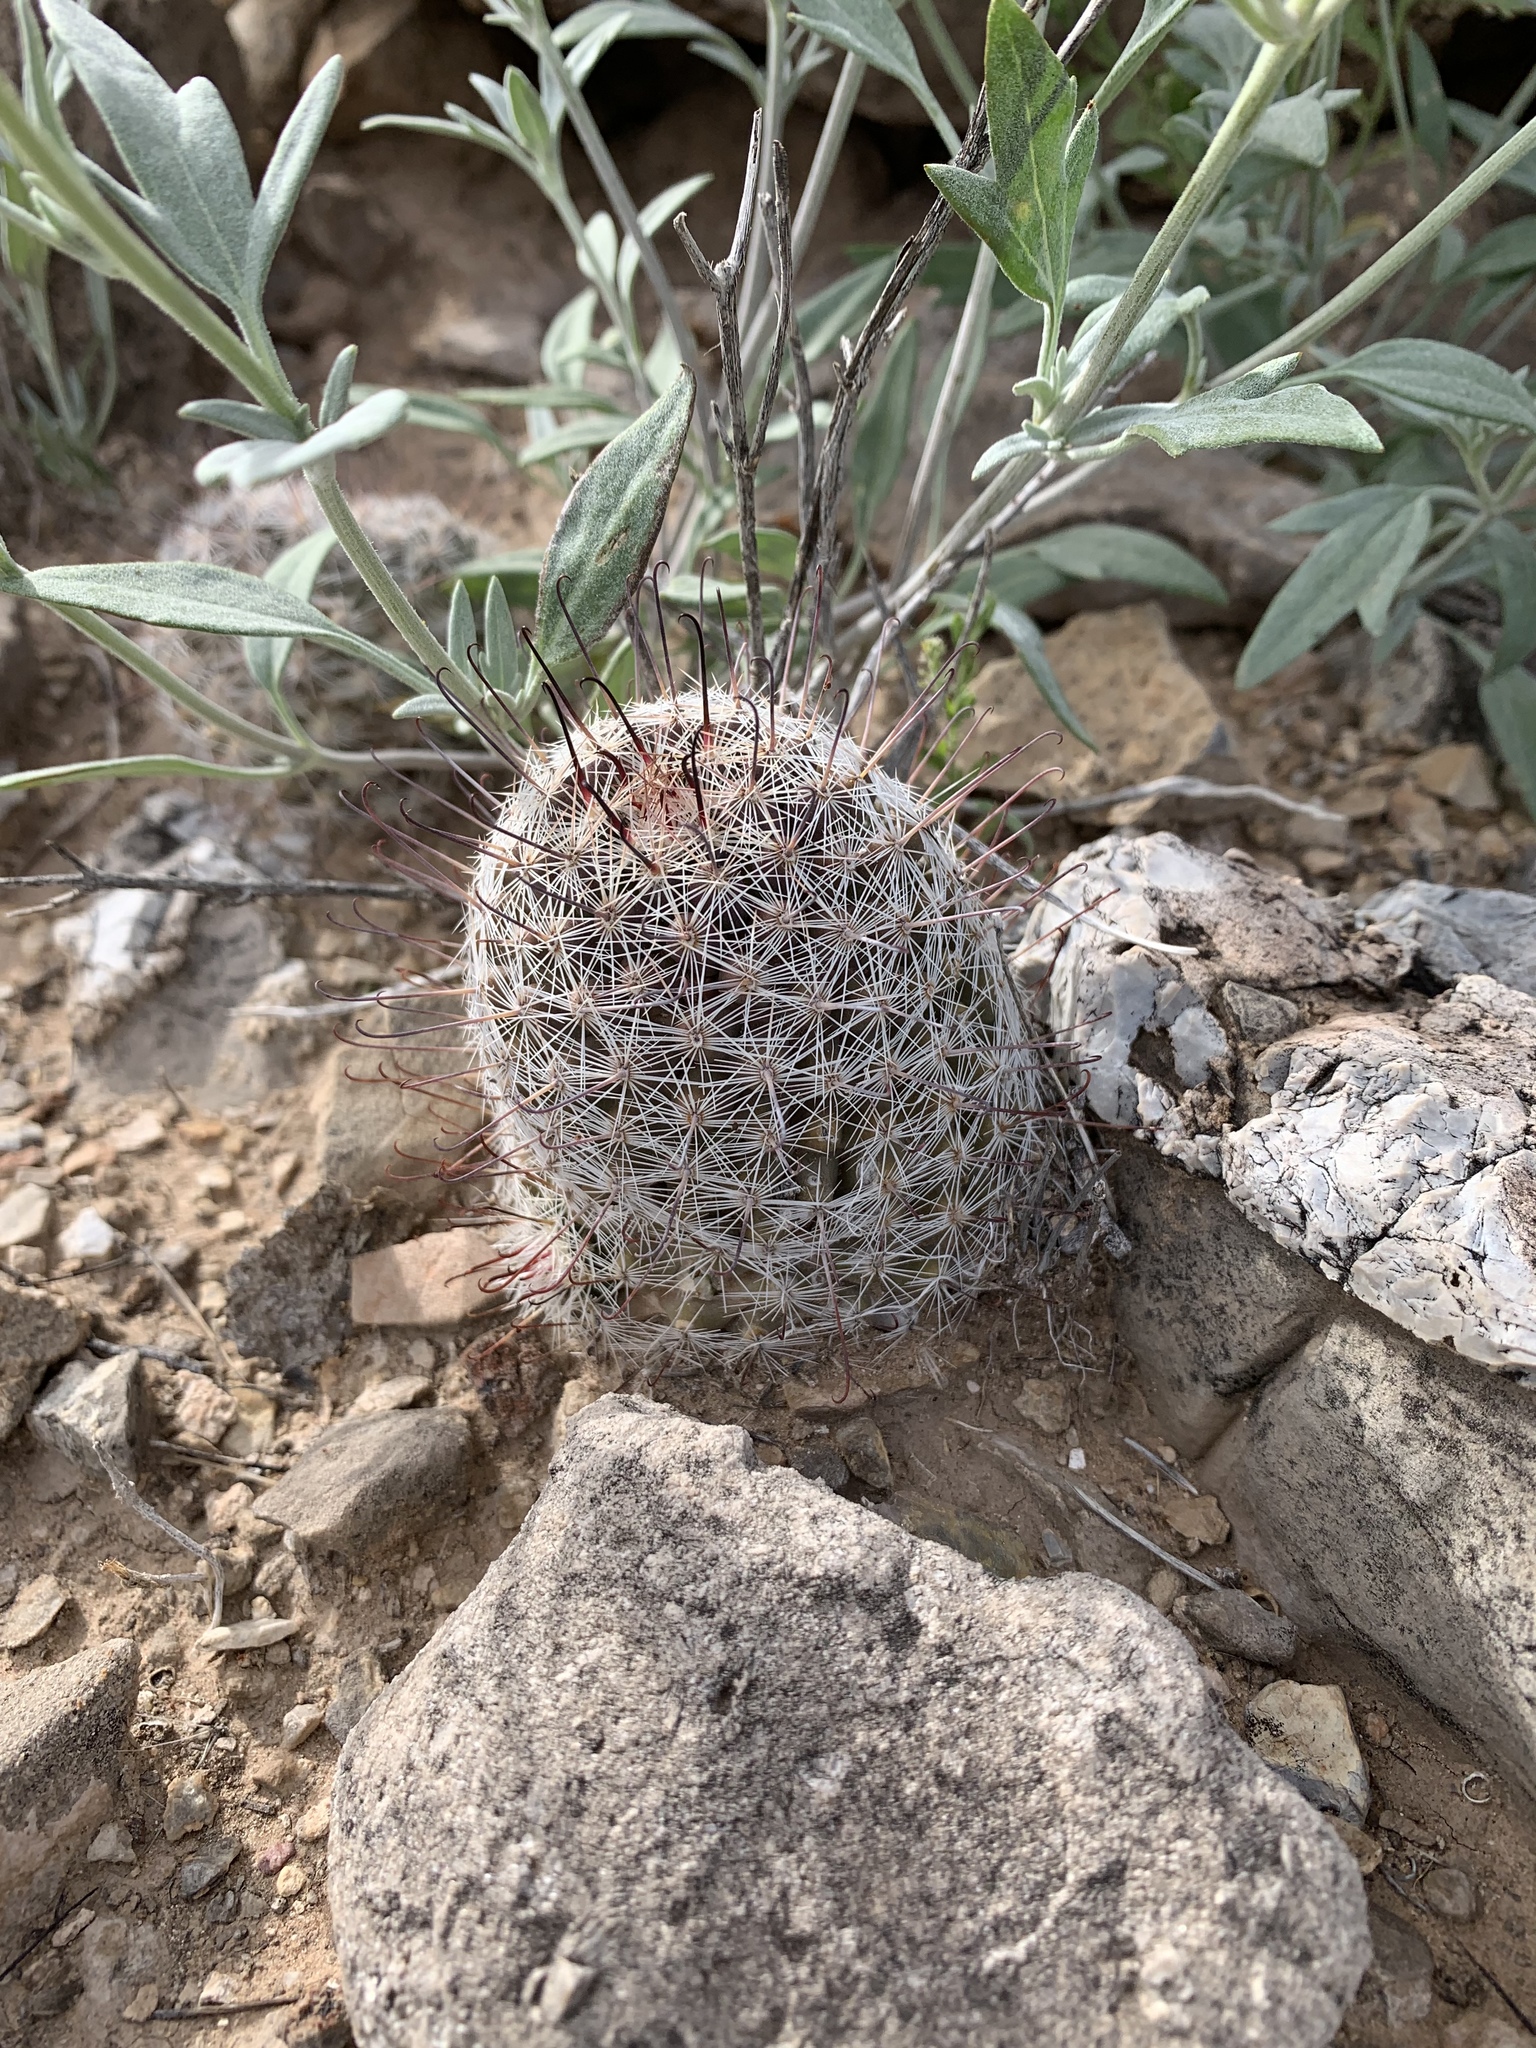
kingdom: Plantae
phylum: Tracheophyta
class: Magnoliopsida
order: Caryophyllales
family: Cactaceae
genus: Cochemiea
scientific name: Cochemiea grahamii
